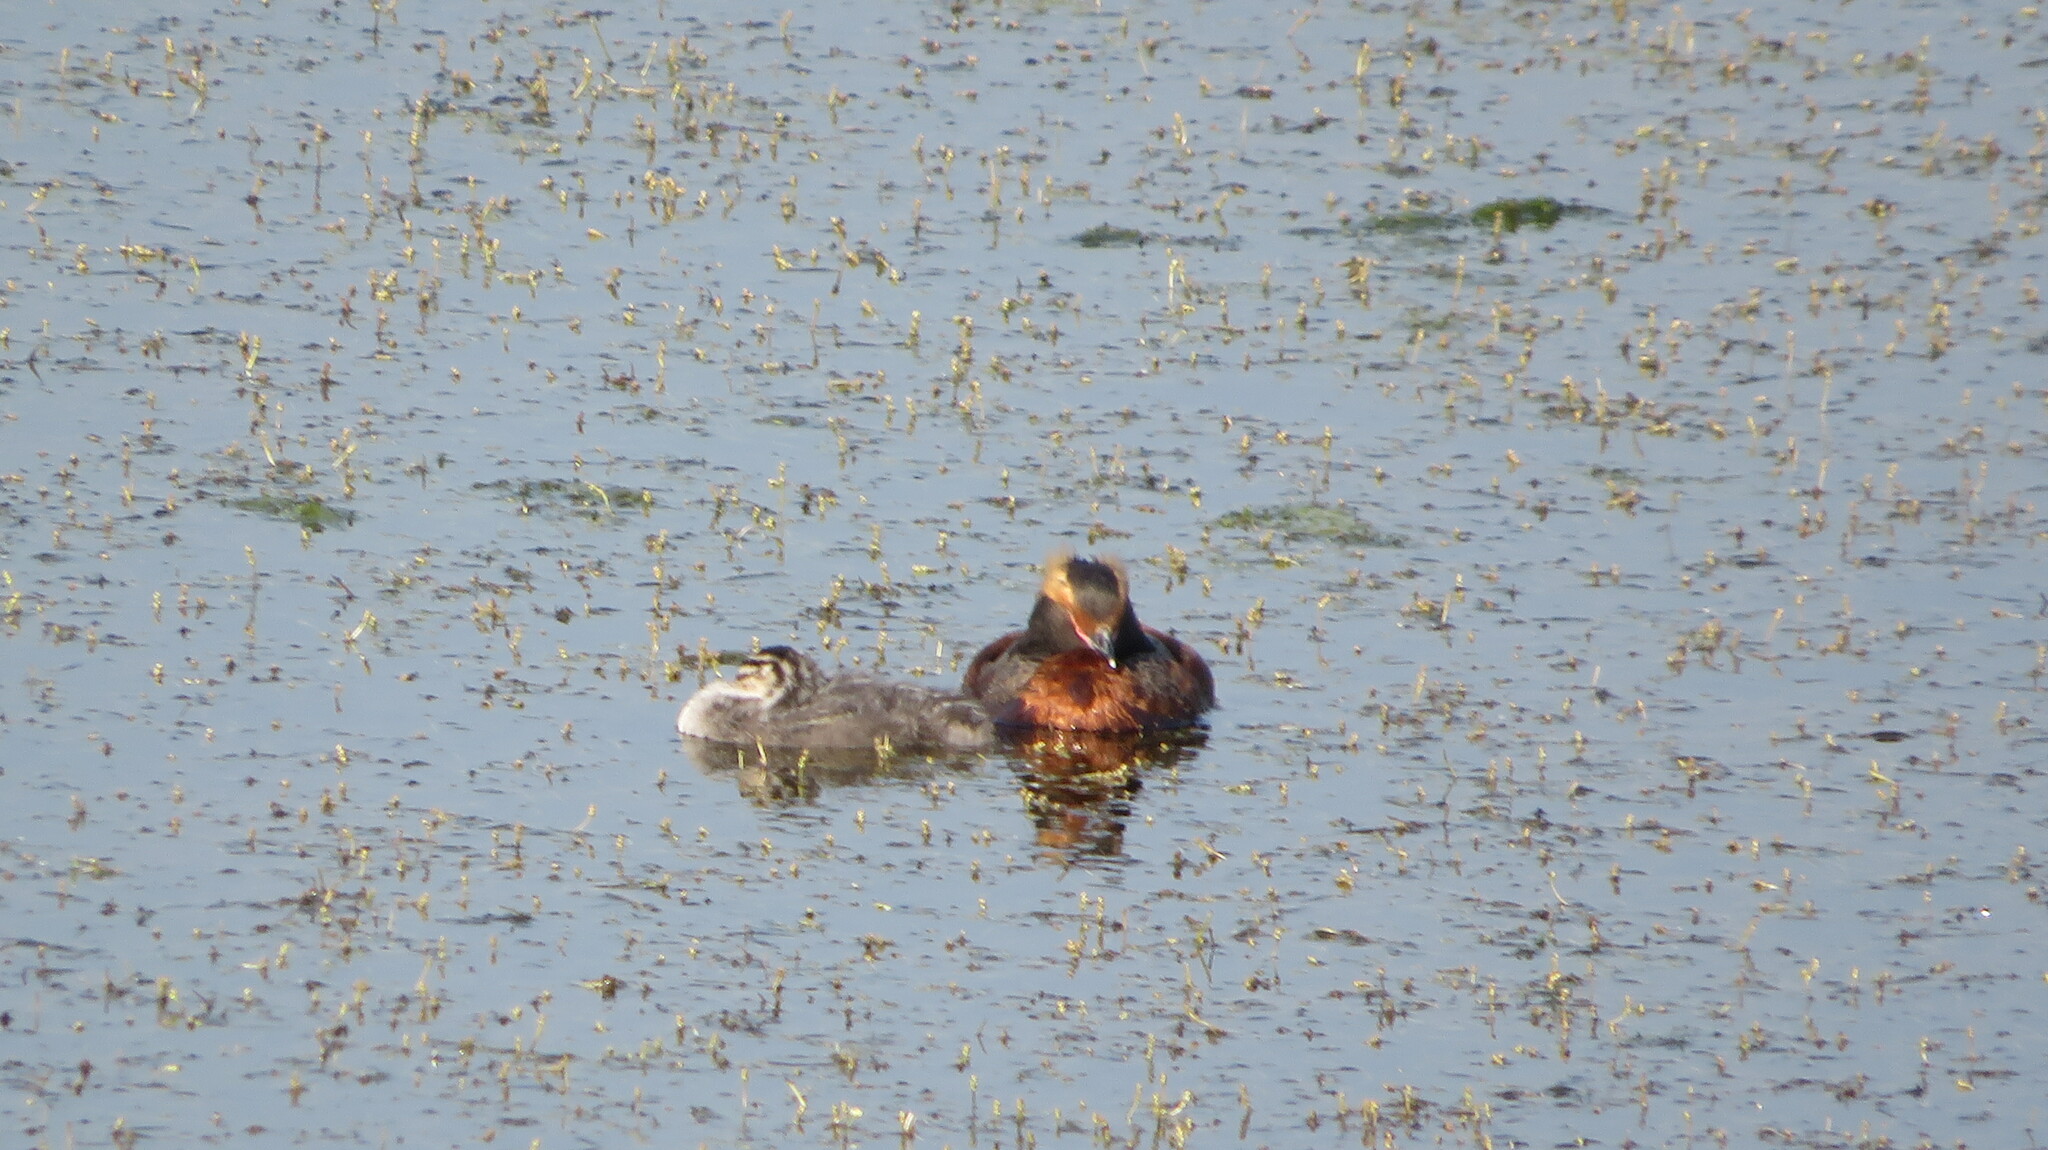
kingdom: Animalia
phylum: Chordata
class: Aves
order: Podicipediformes
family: Podicipedidae
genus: Podiceps
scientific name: Podiceps auritus
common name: Horned grebe
